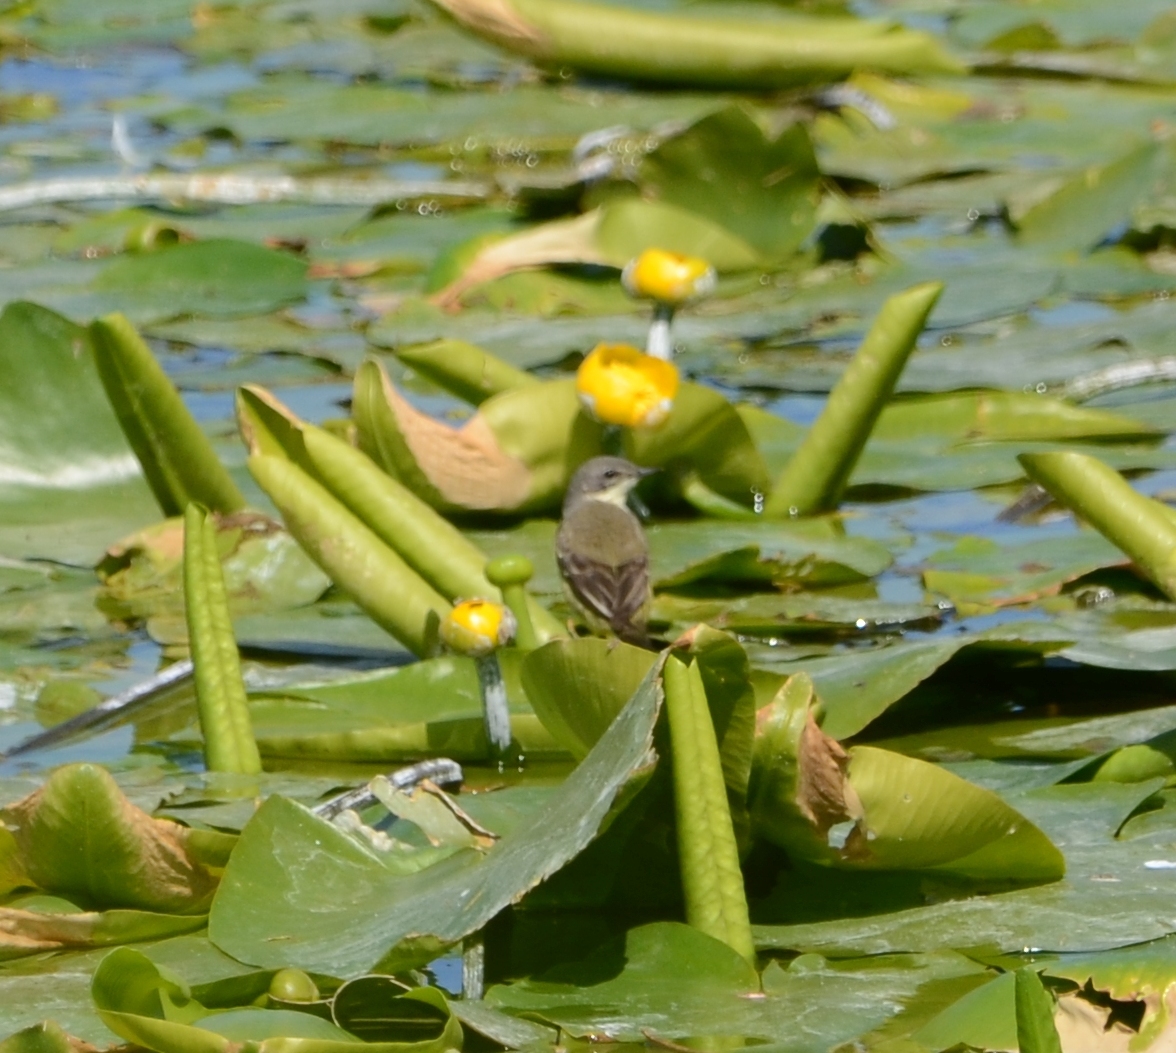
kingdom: Animalia
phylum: Chordata
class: Aves
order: Passeriformes
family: Motacillidae
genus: Motacilla
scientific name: Motacilla flava
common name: Western yellow wagtail
